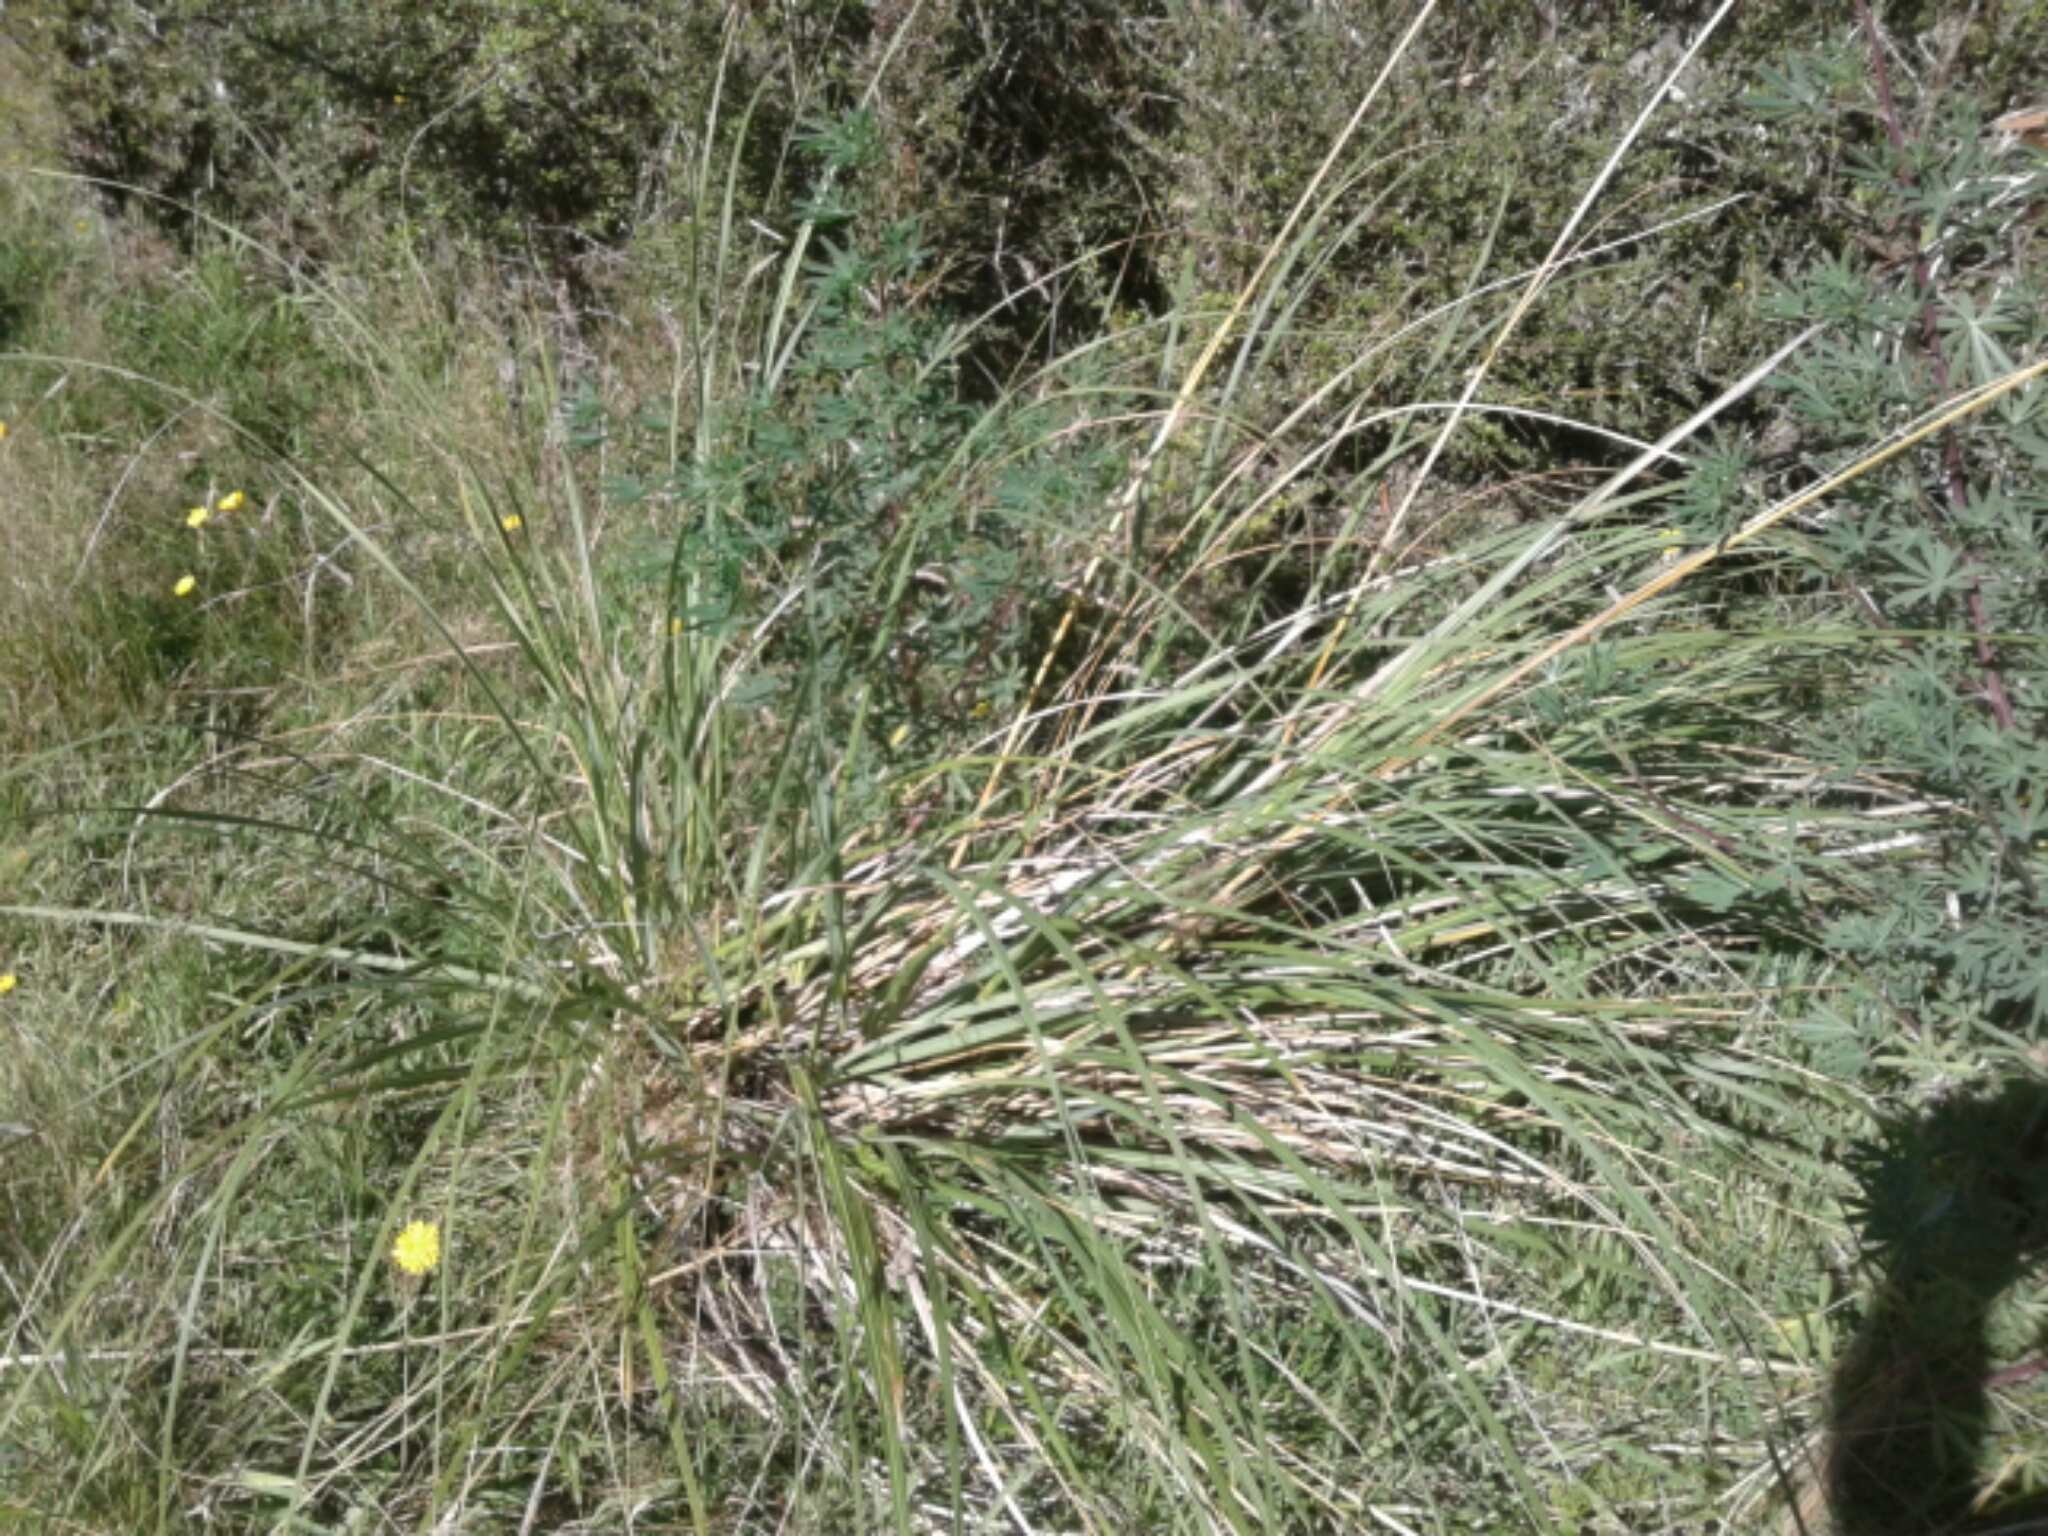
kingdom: Plantae
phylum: Tracheophyta
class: Liliopsida
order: Poales
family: Poaceae
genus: Austroderia
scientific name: Austroderia richardii
